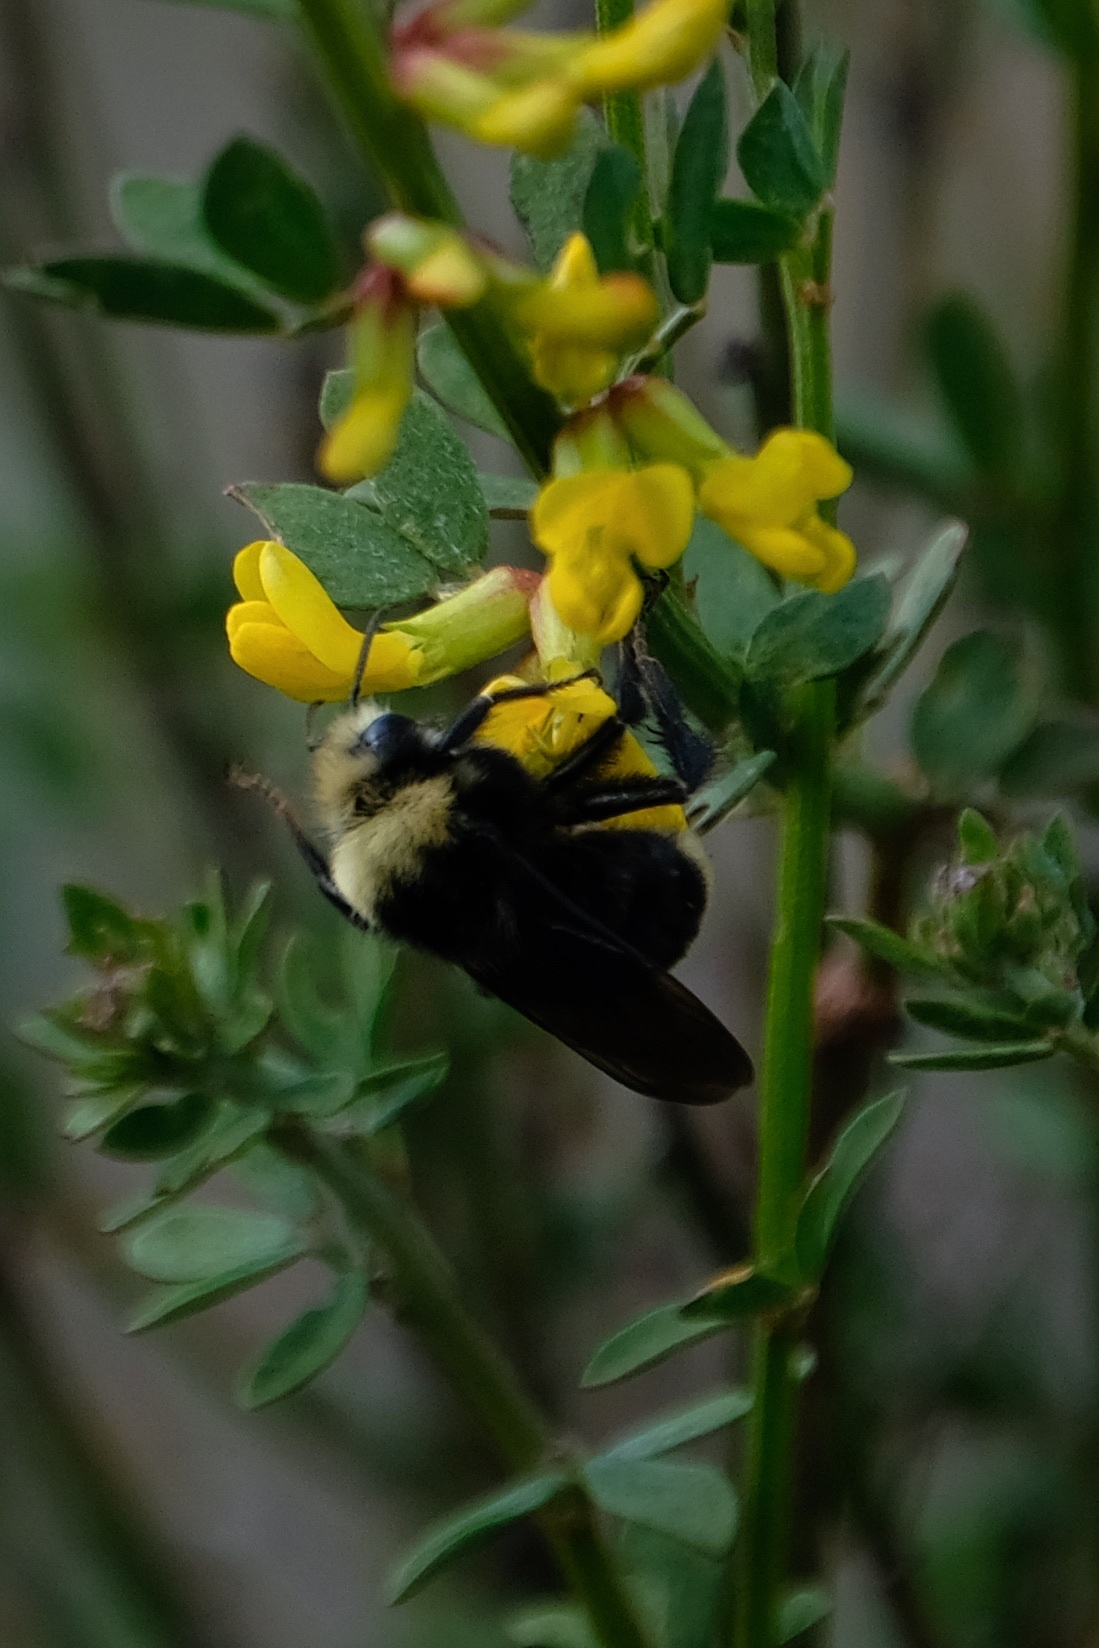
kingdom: Animalia
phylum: Arthropoda
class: Insecta
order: Hymenoptera
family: Apidae
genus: Bombus
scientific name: Bombus vosnesenskii
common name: Vosnesensky bumble bee
